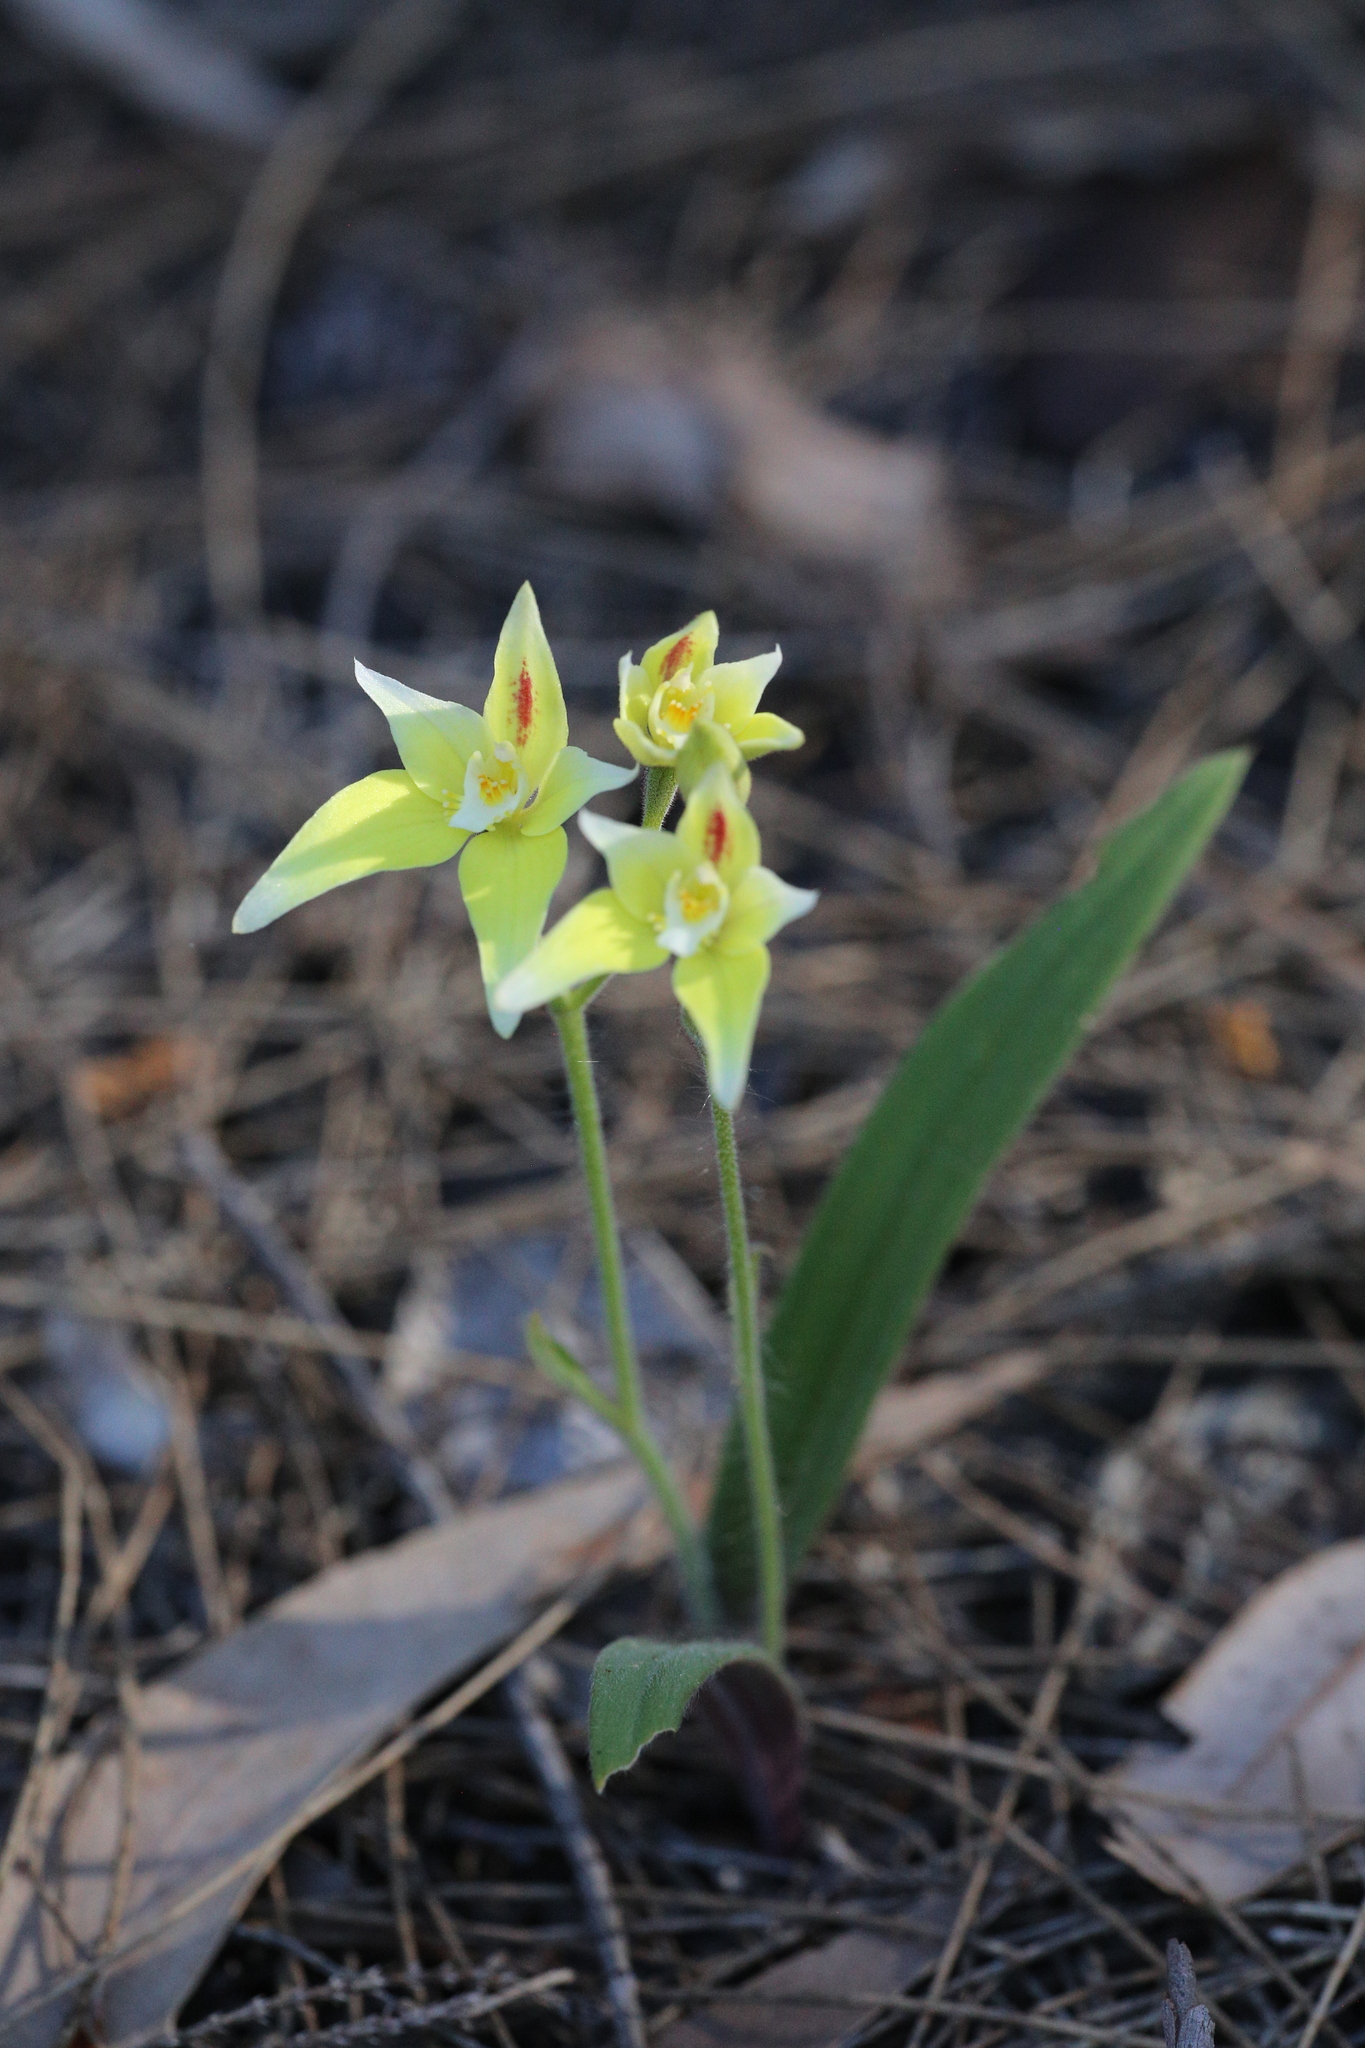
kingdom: Plantae
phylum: Tracheophyta
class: Liliopsida
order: Asparagales
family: Orchidaceae
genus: Caladenia
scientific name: Caladenia flava
